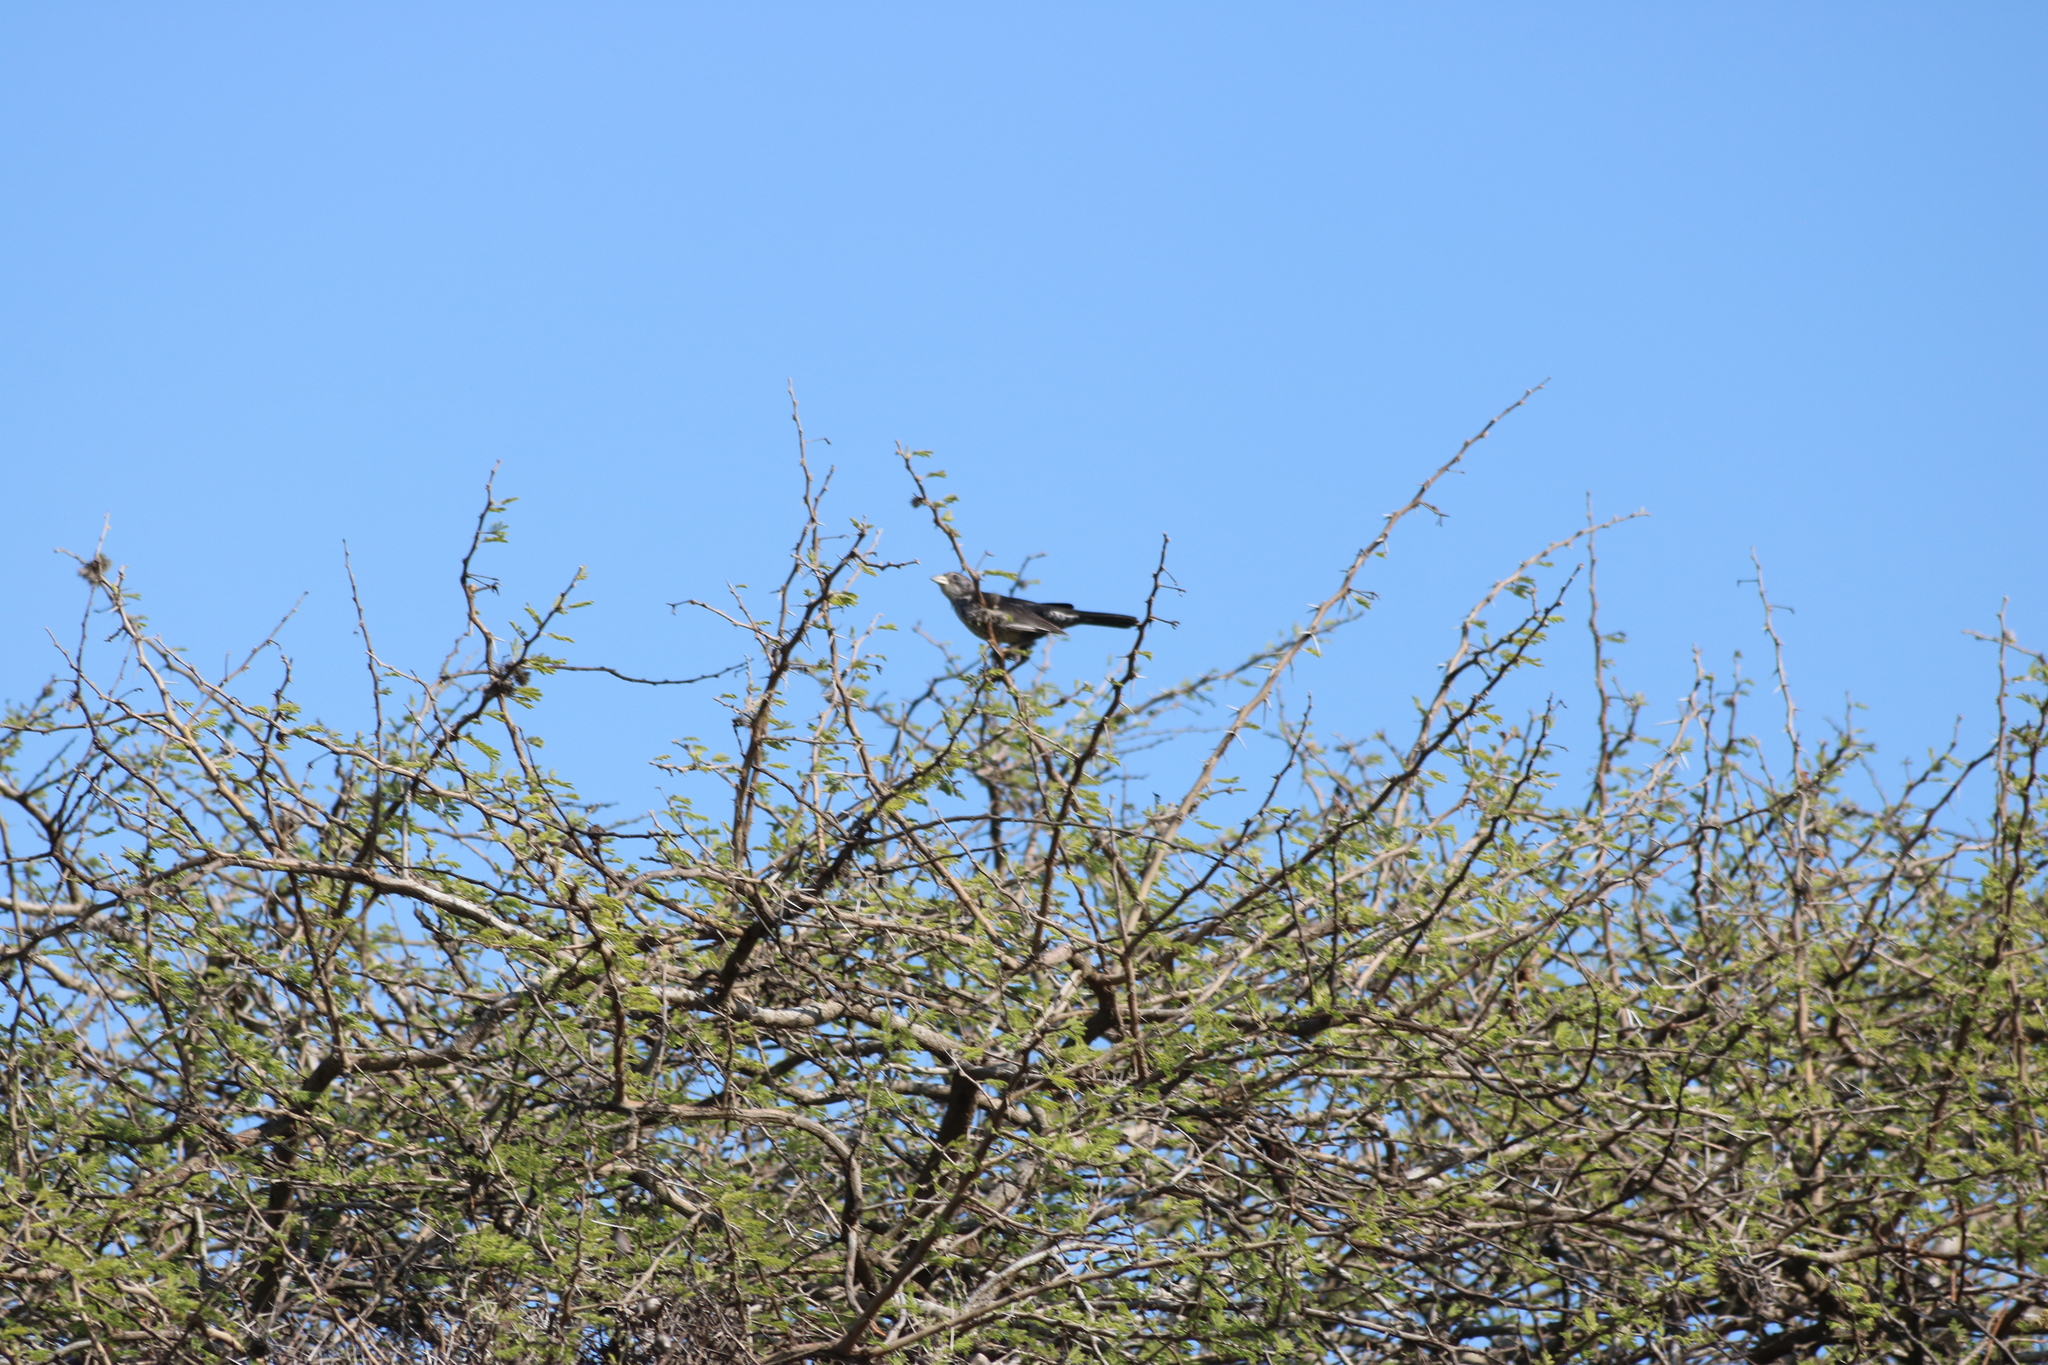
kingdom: Animalia
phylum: Chordata
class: Aves
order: Passeriformes
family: Ploceidae
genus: Bubalornis
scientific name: Bubalornis niger
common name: Red-billed buffalo weaver
